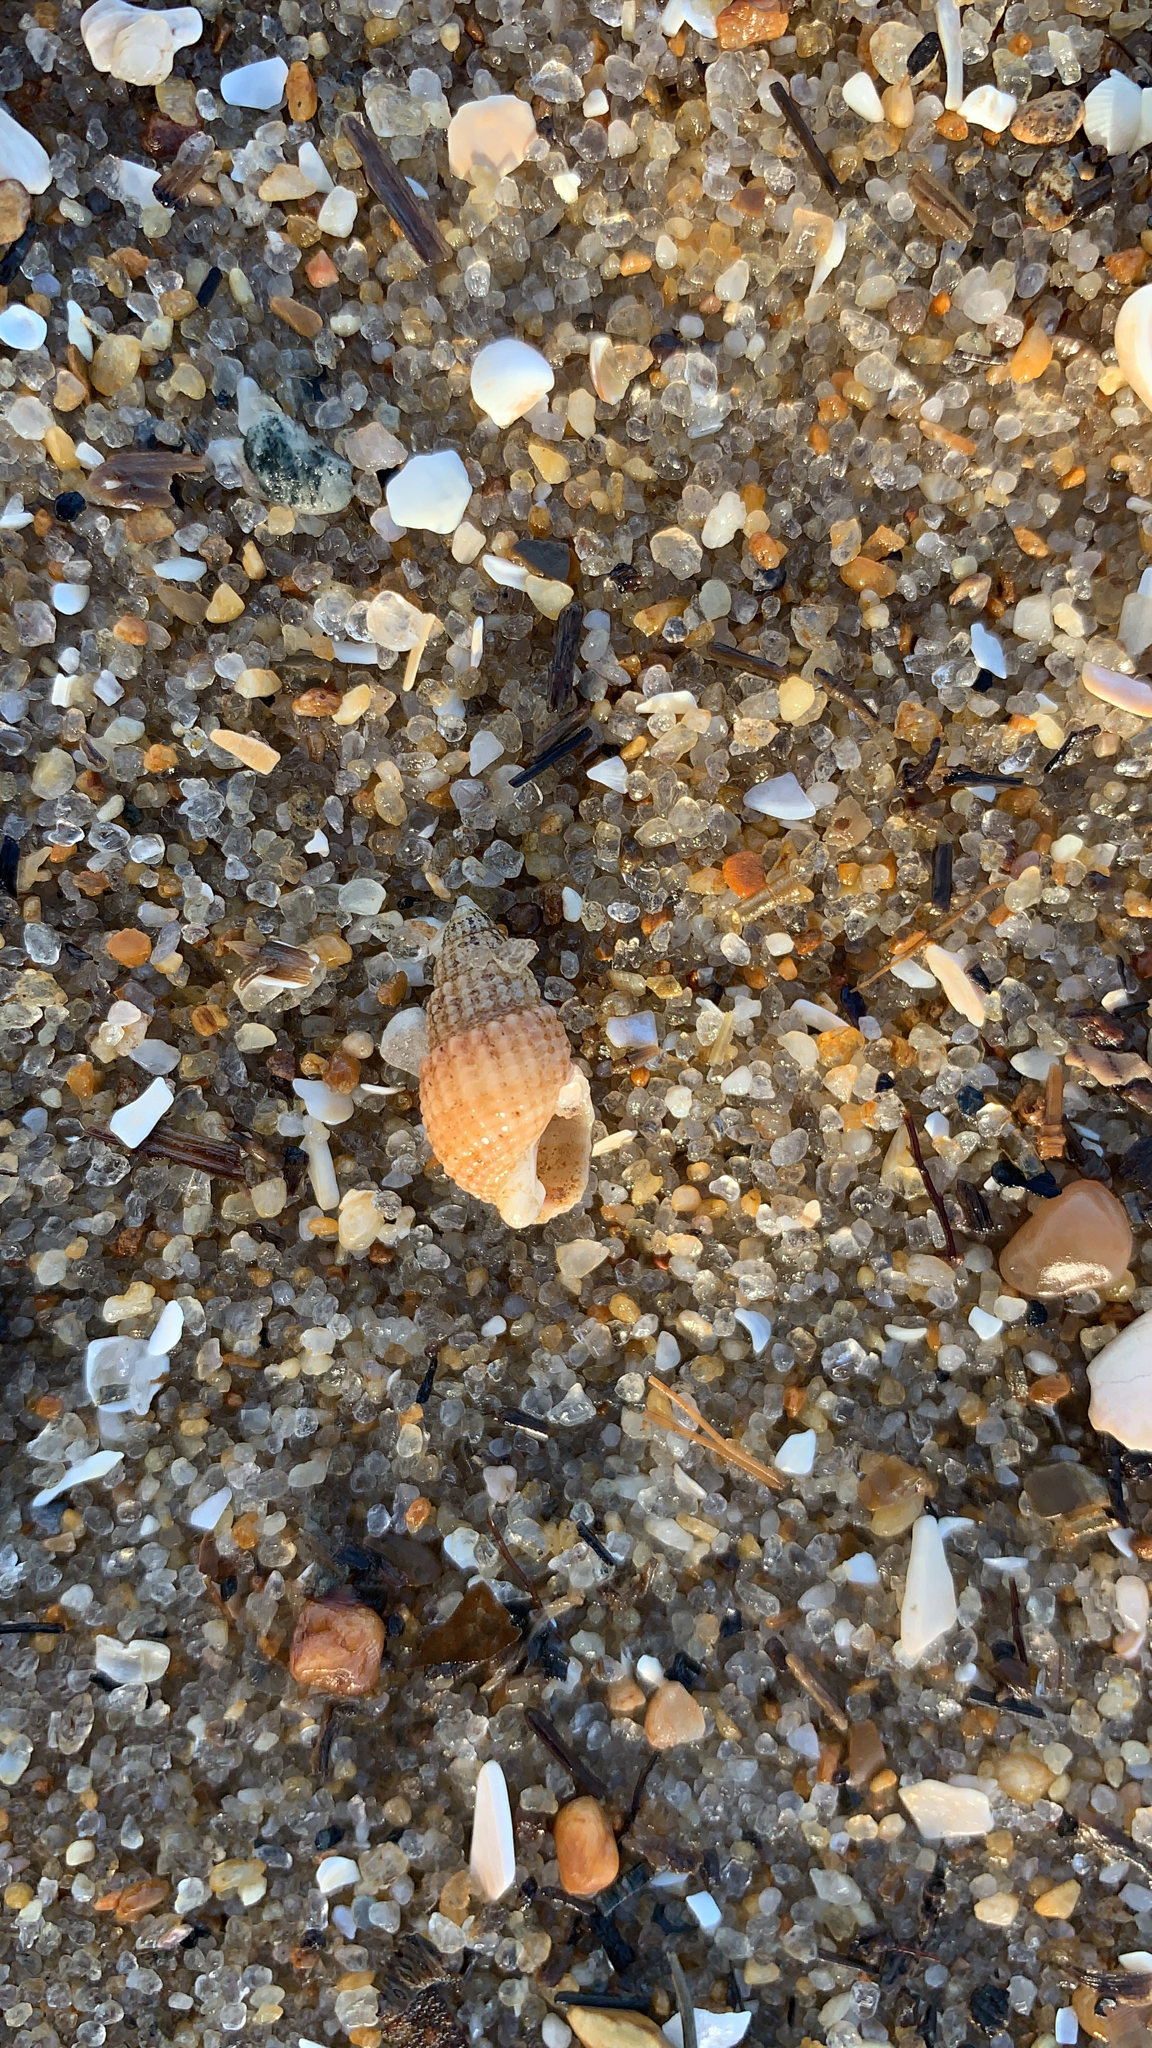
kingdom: Animalia
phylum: Mollusca
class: Gastropoda
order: Neogastropoda
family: Nassariidae
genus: Ilyanassa
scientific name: Ilyanassa trivittata
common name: Three-line mudsnail
